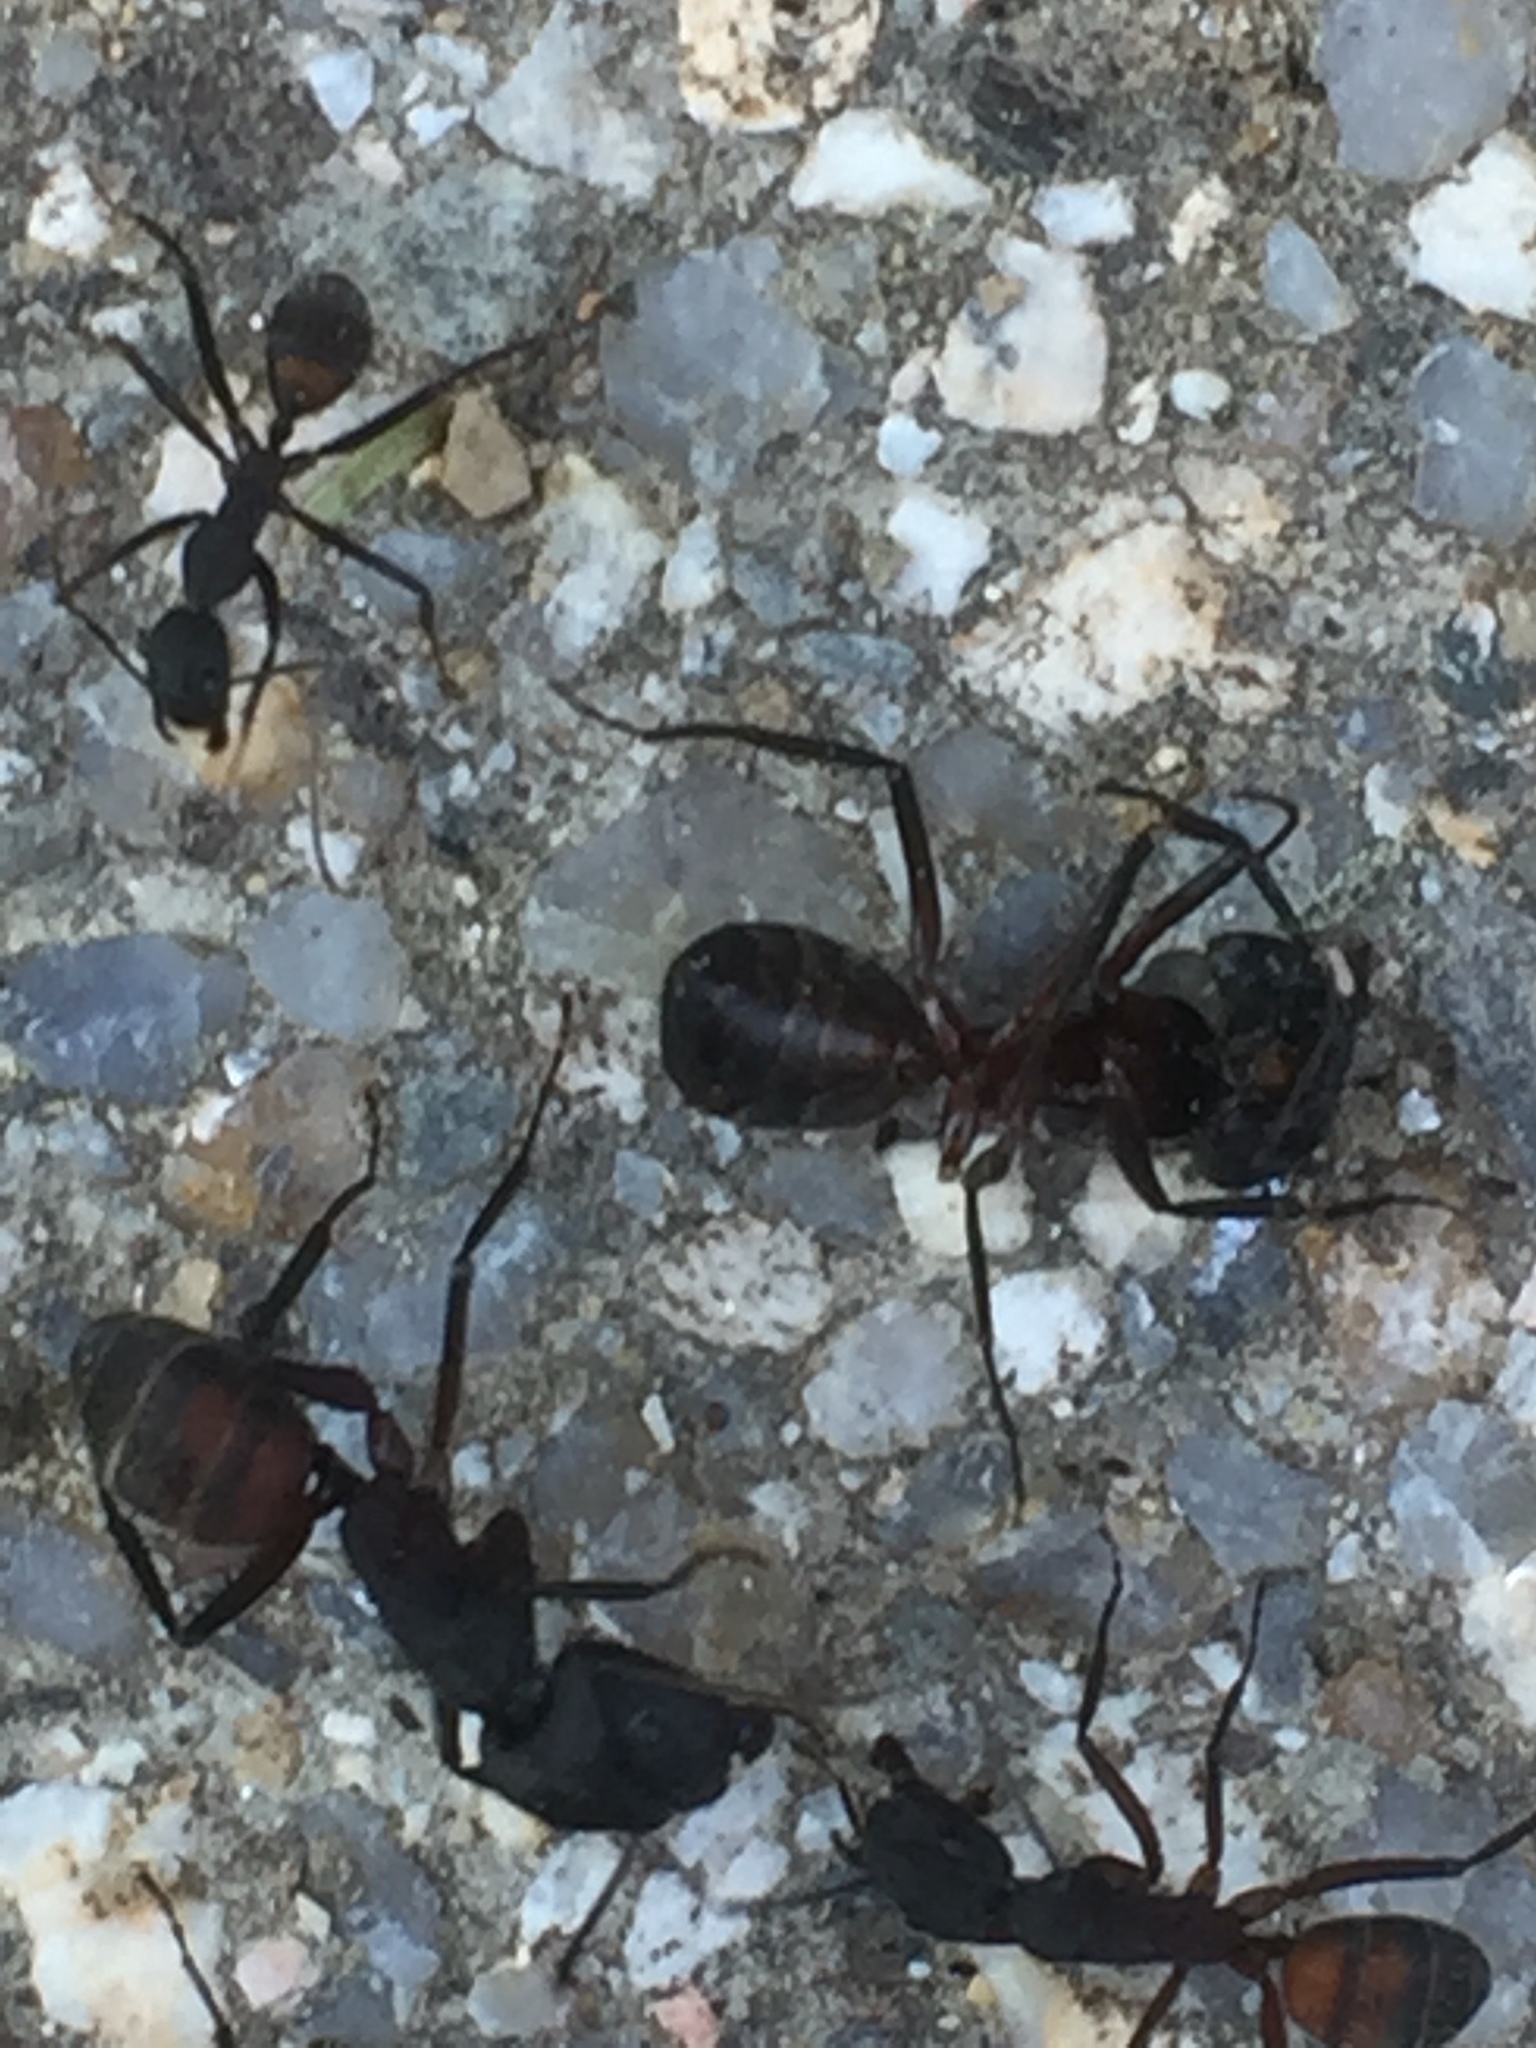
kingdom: Animalia
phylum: Arthropoda
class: Insecta
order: Hymenoptera
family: Formicidae
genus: Camponotus
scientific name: Camponotus cruentatus
